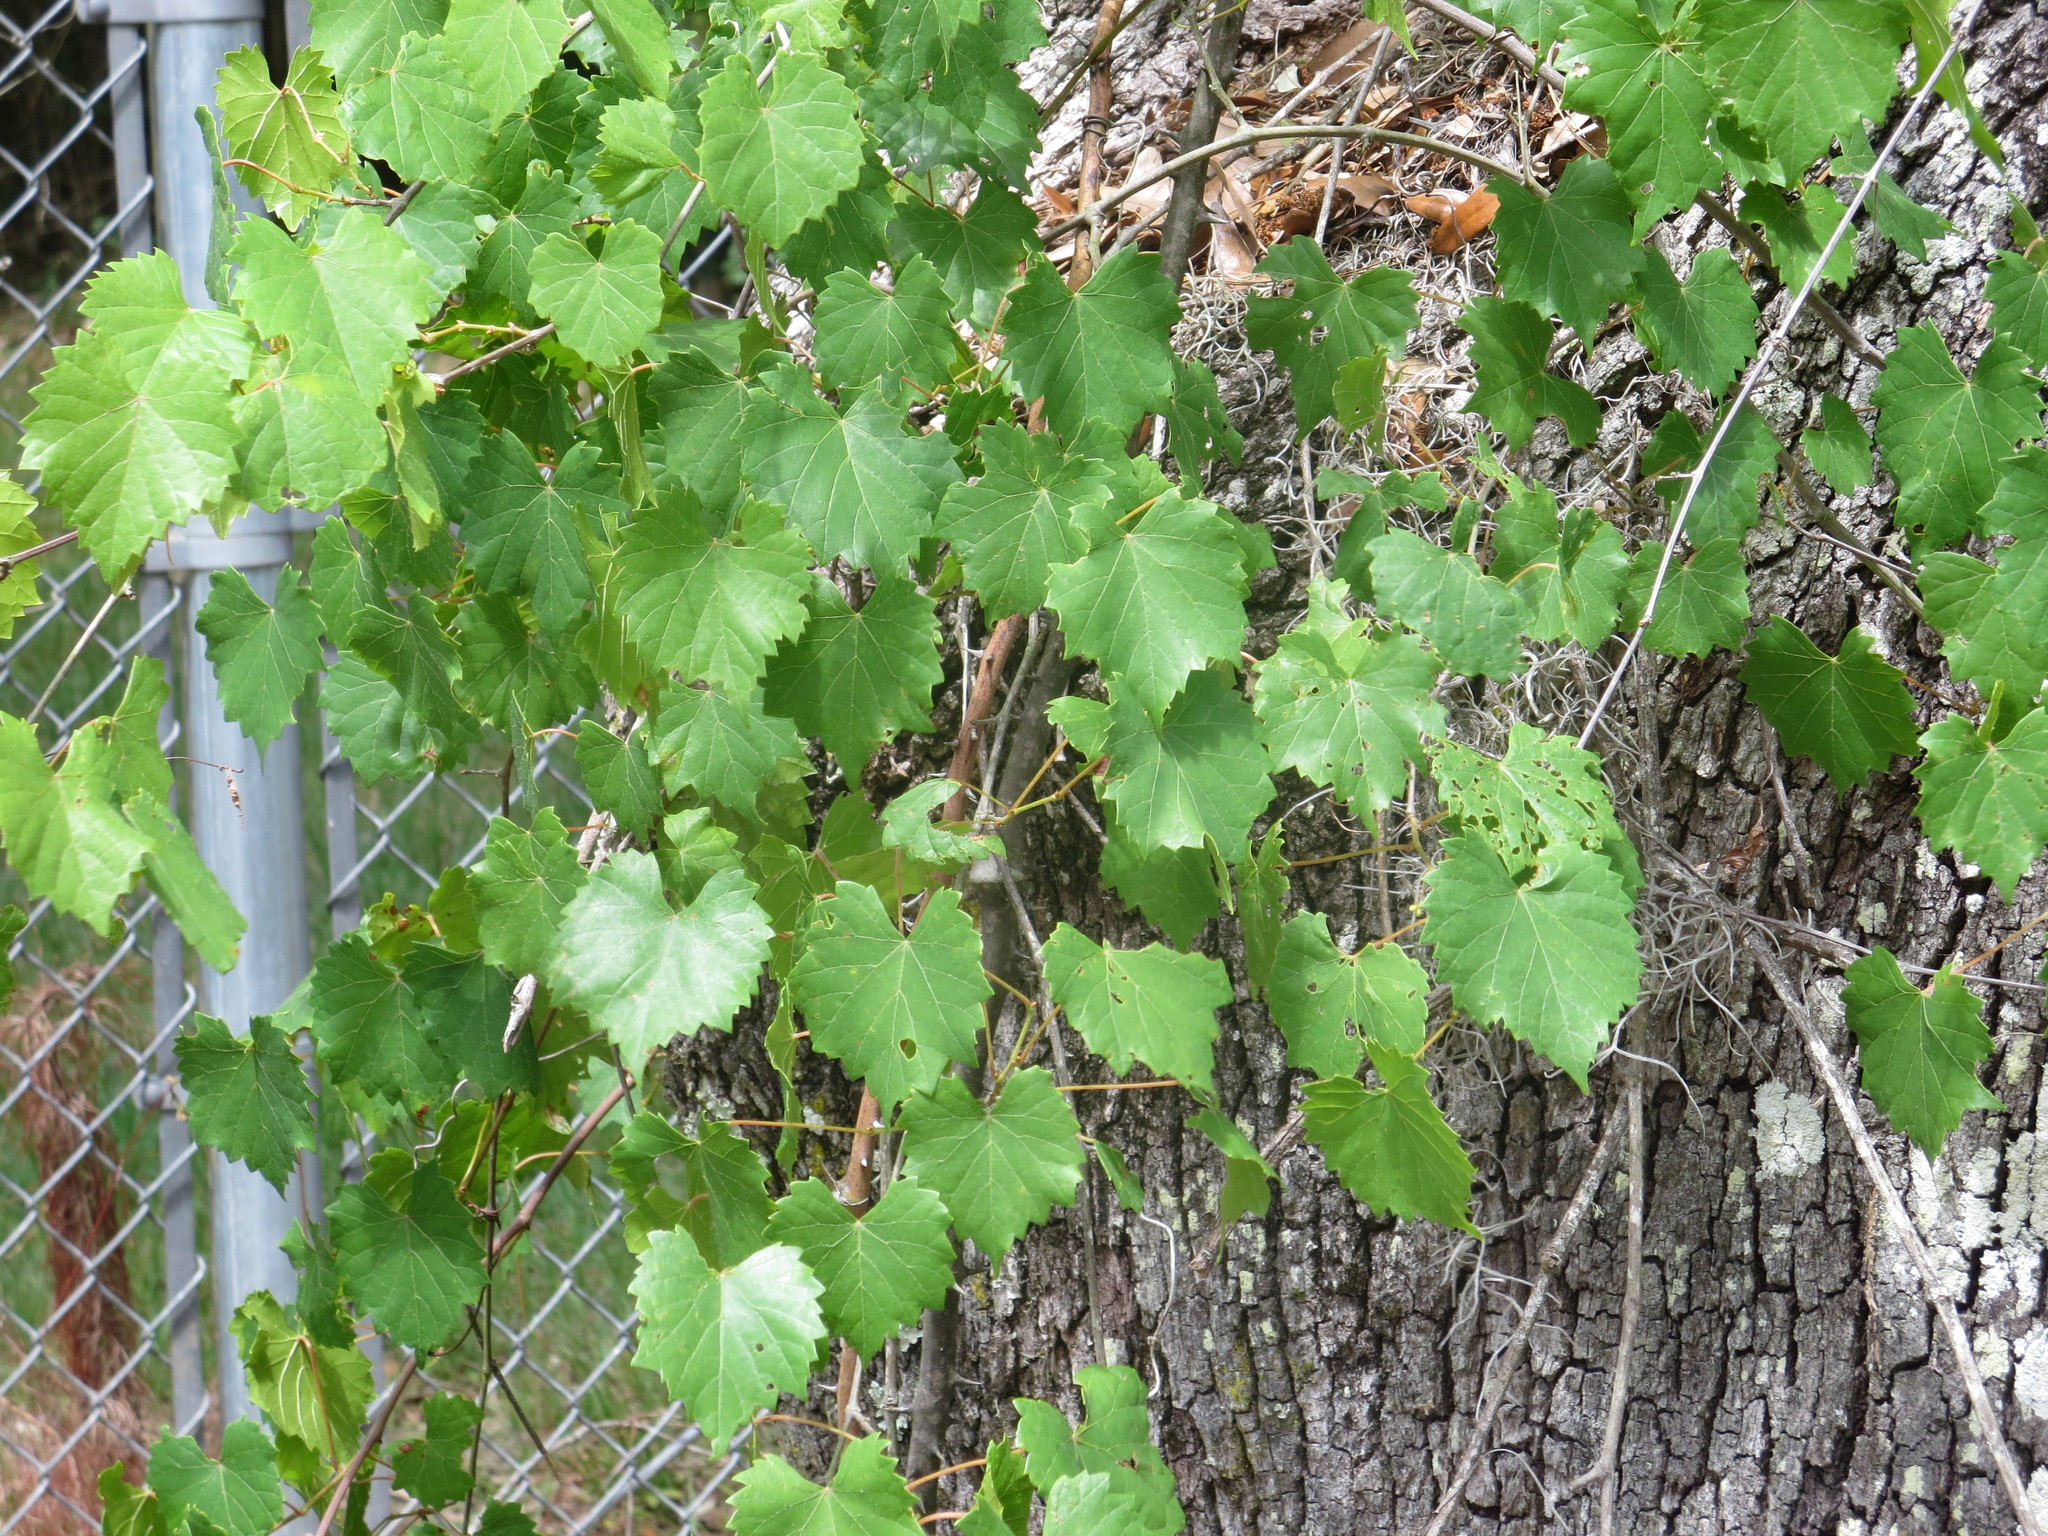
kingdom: Plantae
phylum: Tracheophyta
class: Magnoliopsida
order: Vitales
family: Vitaceae
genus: Vitis
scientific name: Vitis rotundifolia
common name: Muscadine grape
